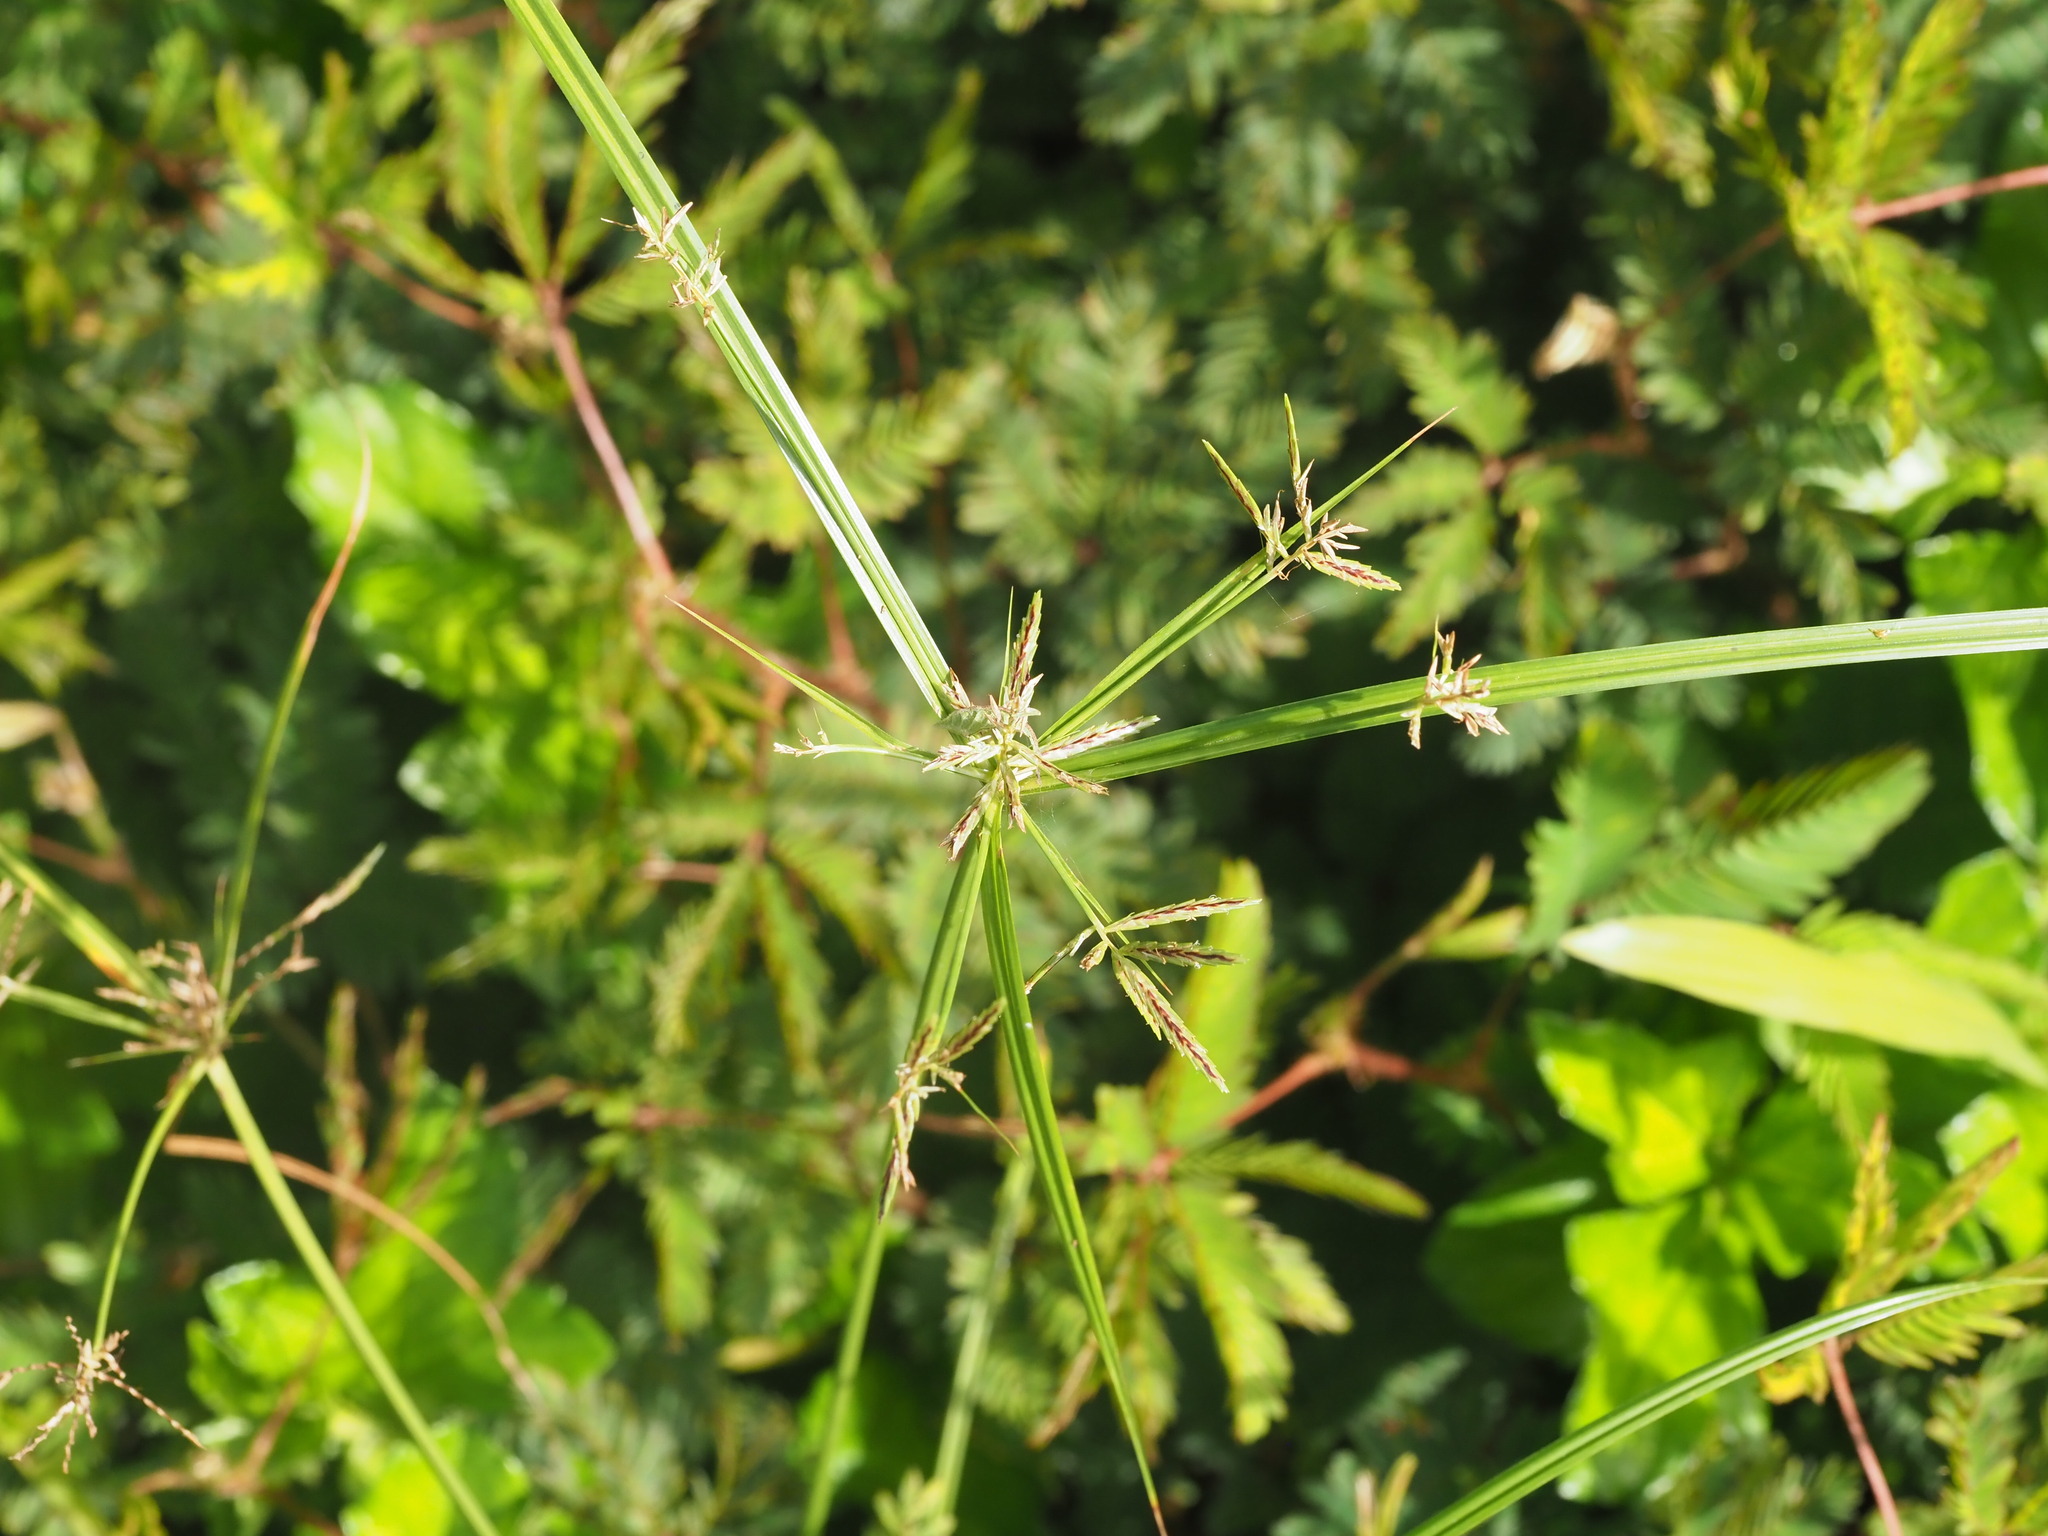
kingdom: Plantae
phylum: Tracheophyta
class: Liliopsida
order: Poales
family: Cyperaceae
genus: Cyperus
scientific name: Cyperus sphacelatus
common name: Roadside flatsedge
